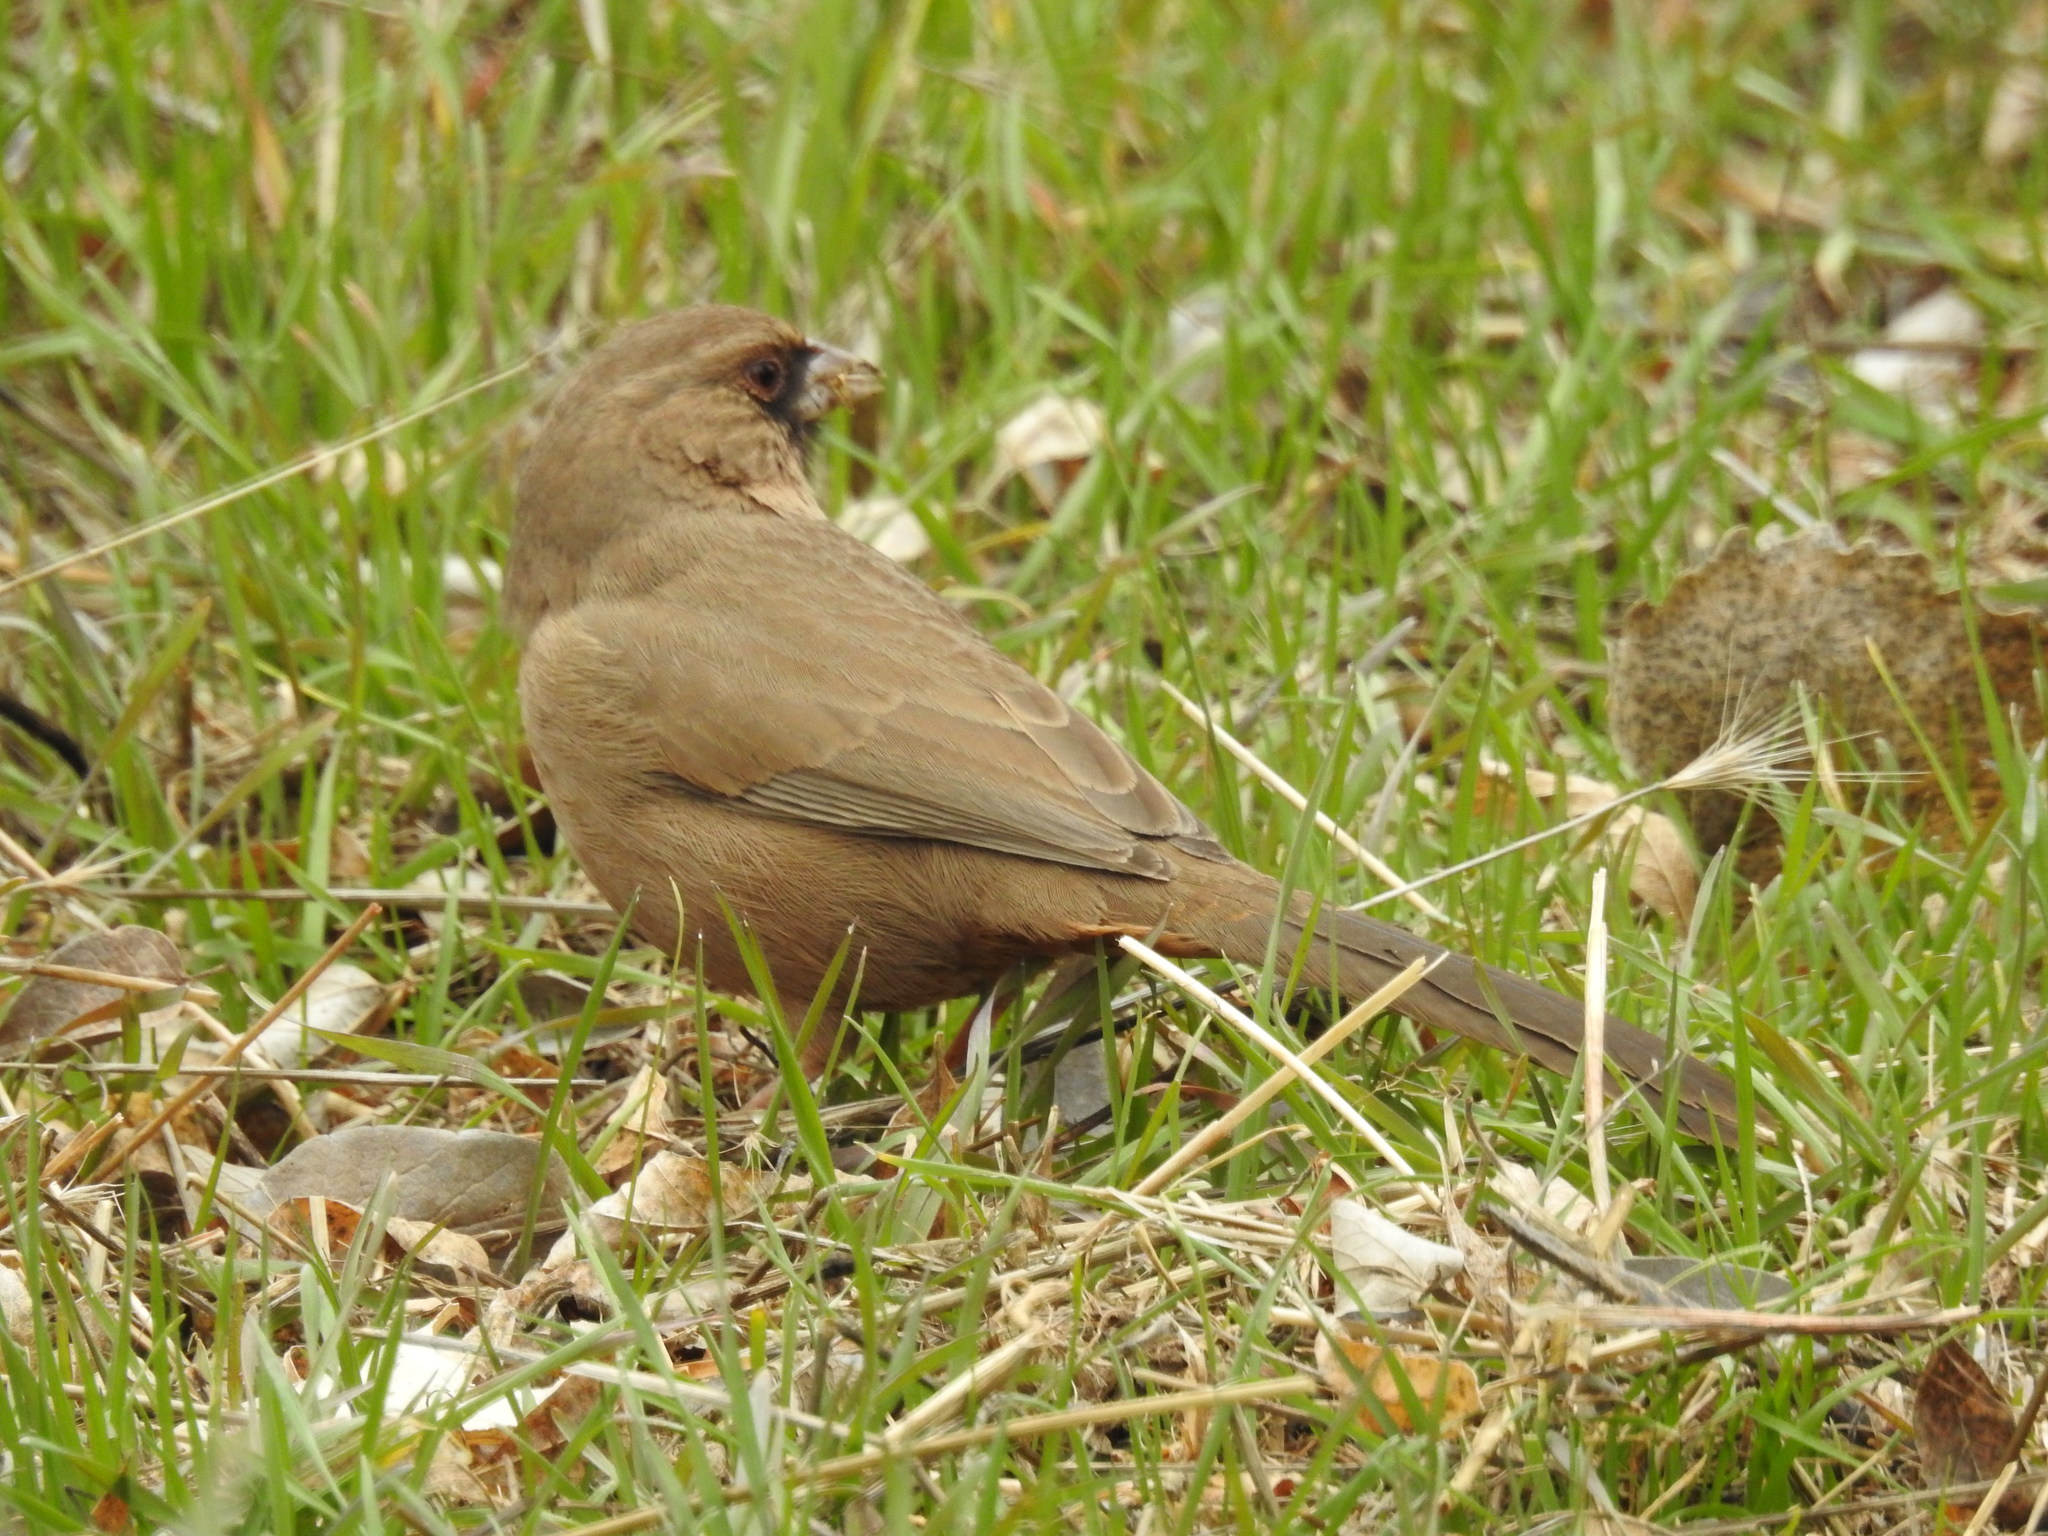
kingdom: Animalia
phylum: Chordata
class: Aves
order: Passeriformes
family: Passerellidae
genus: Melozone
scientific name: Melozone aberti
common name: Abert's towhee
